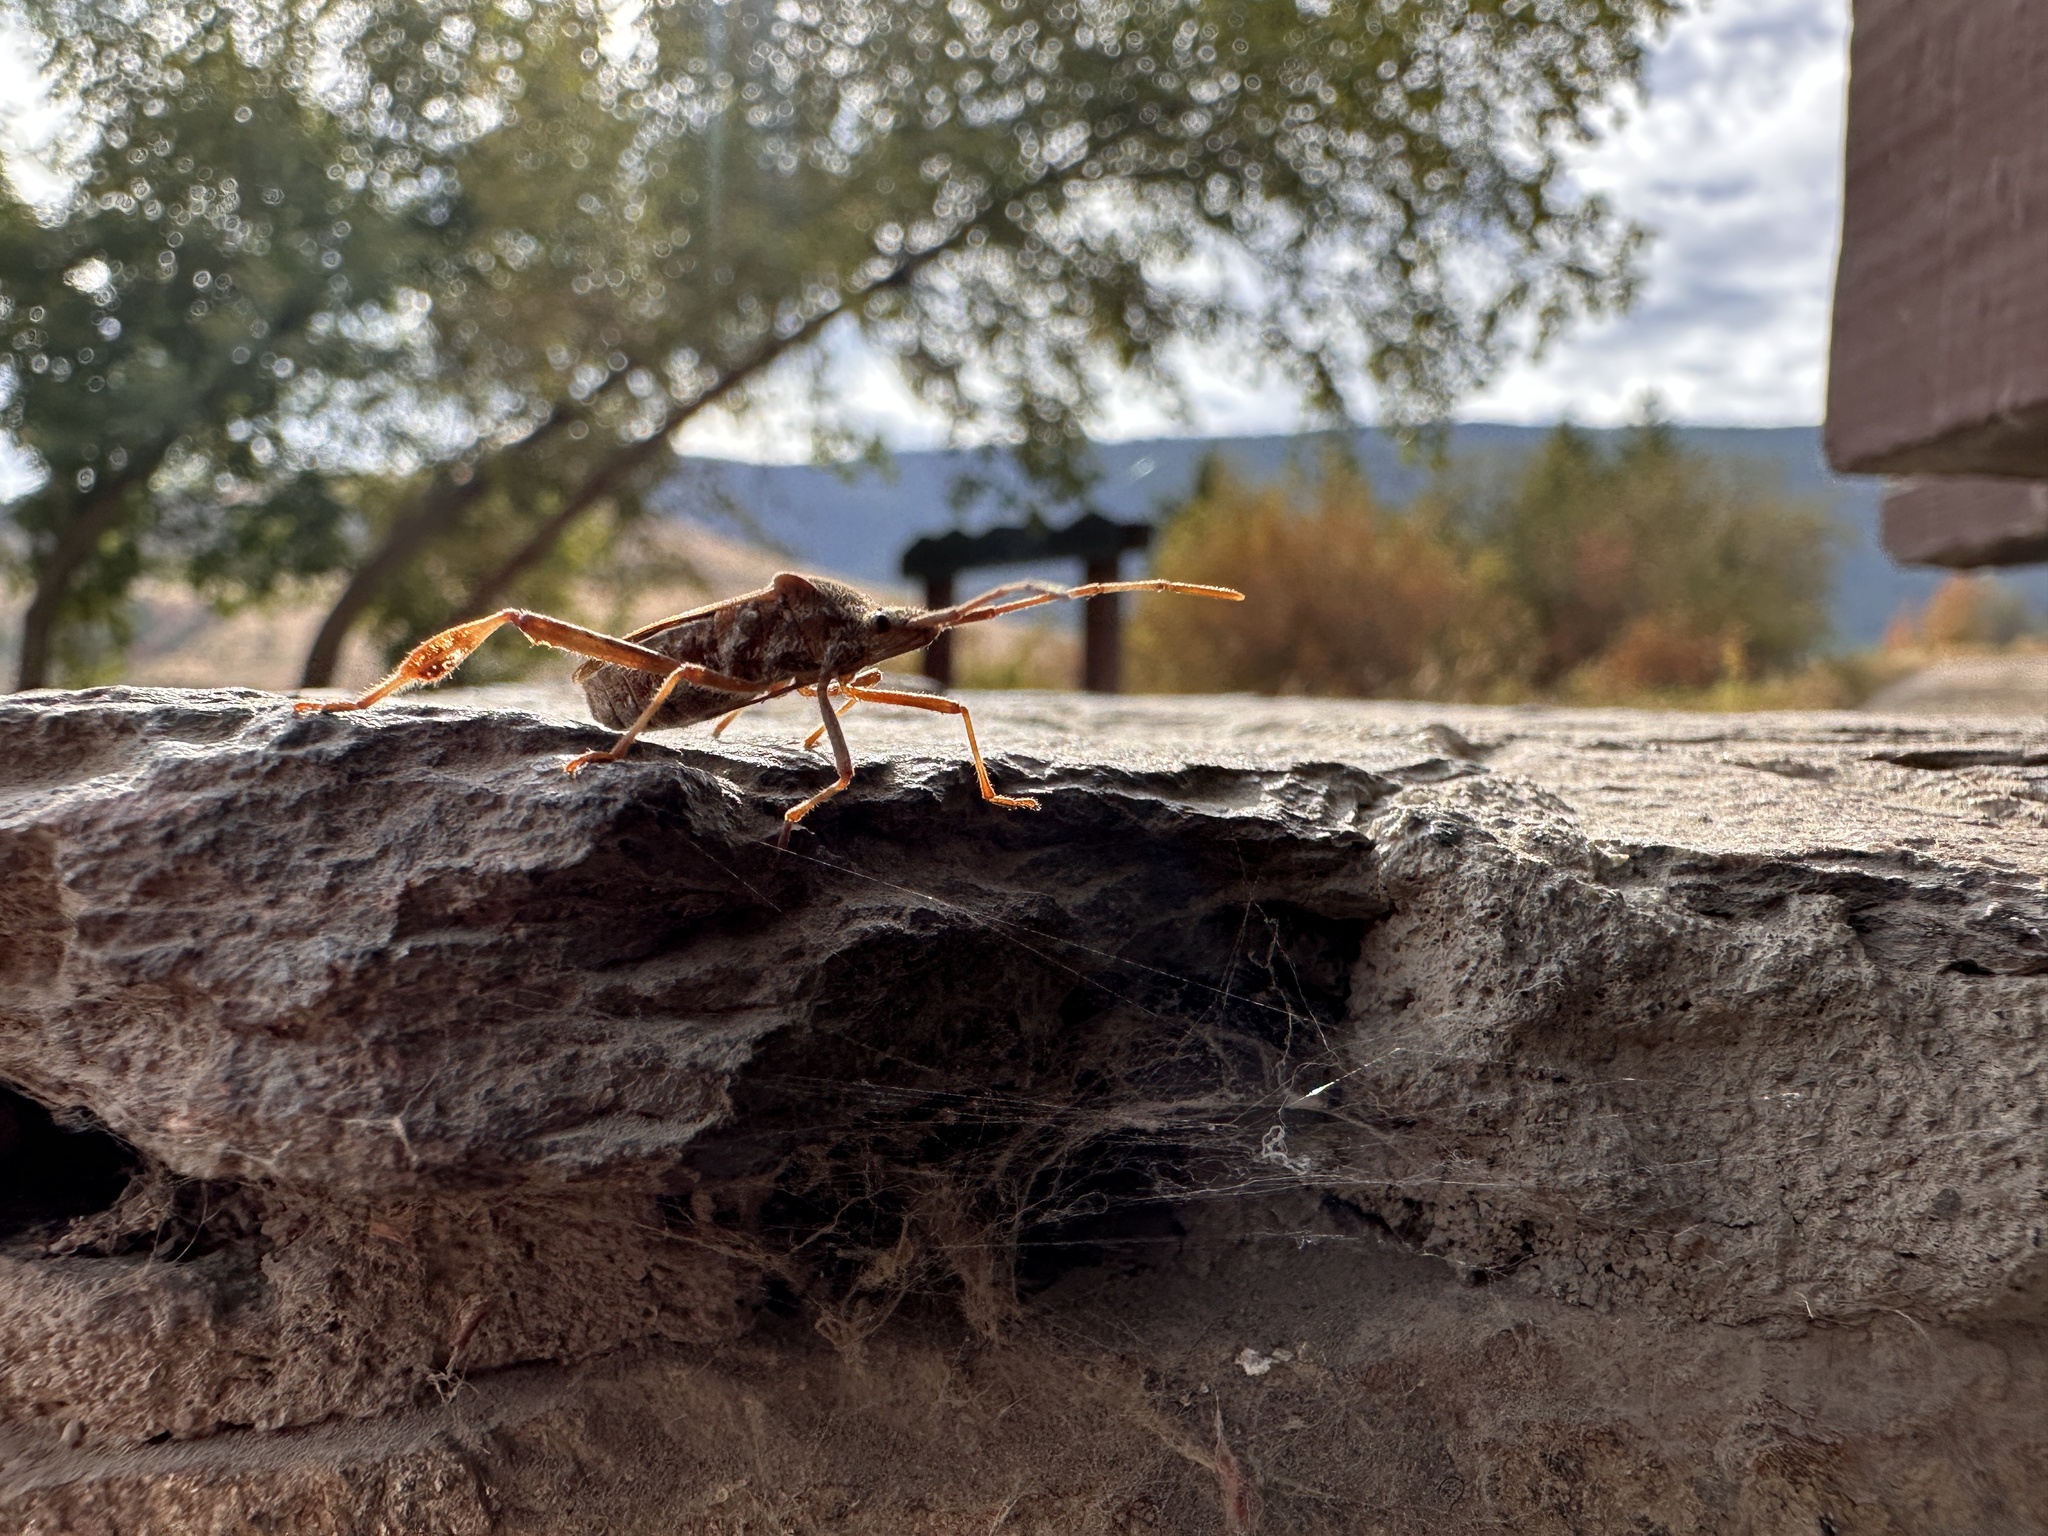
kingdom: Animalia
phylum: Arthropoda
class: Insecta
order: Hemiptera
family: Coreidae
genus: Leptoglossus
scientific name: Leptoglossus occidentalis
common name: Western conifer-seed bug
